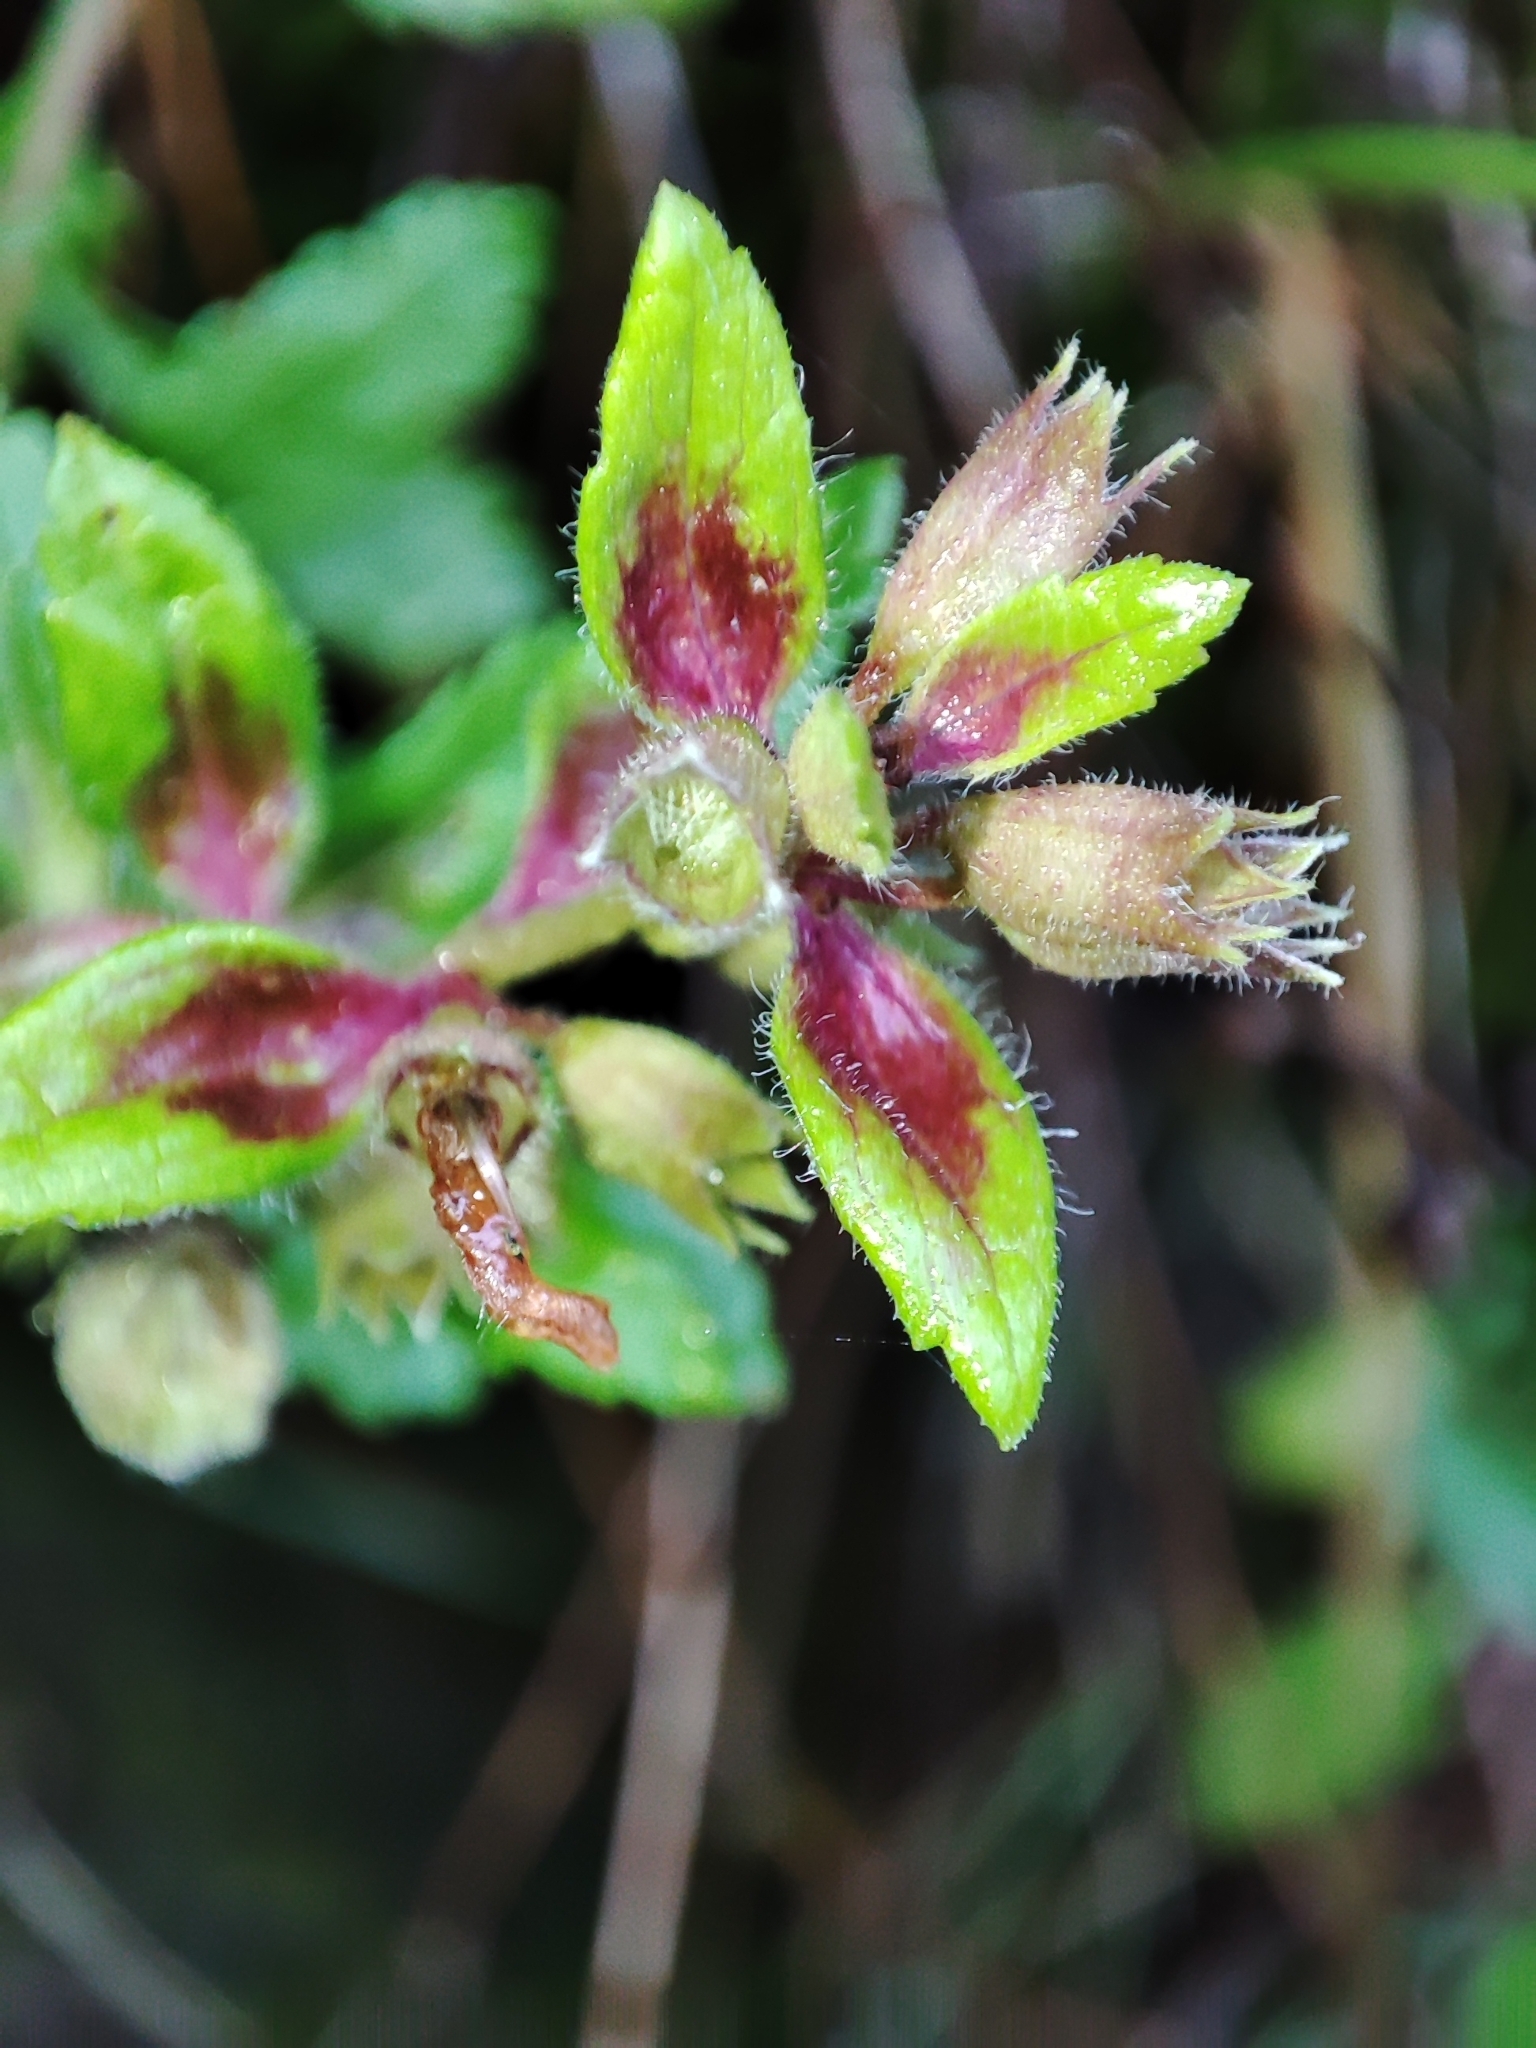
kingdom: Plantae
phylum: Tracheophyta
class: Magnoliopsida
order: Lamiales
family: Lamiaceae
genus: Teucrium
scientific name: Teucrium chamaedrys
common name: Wall germander
